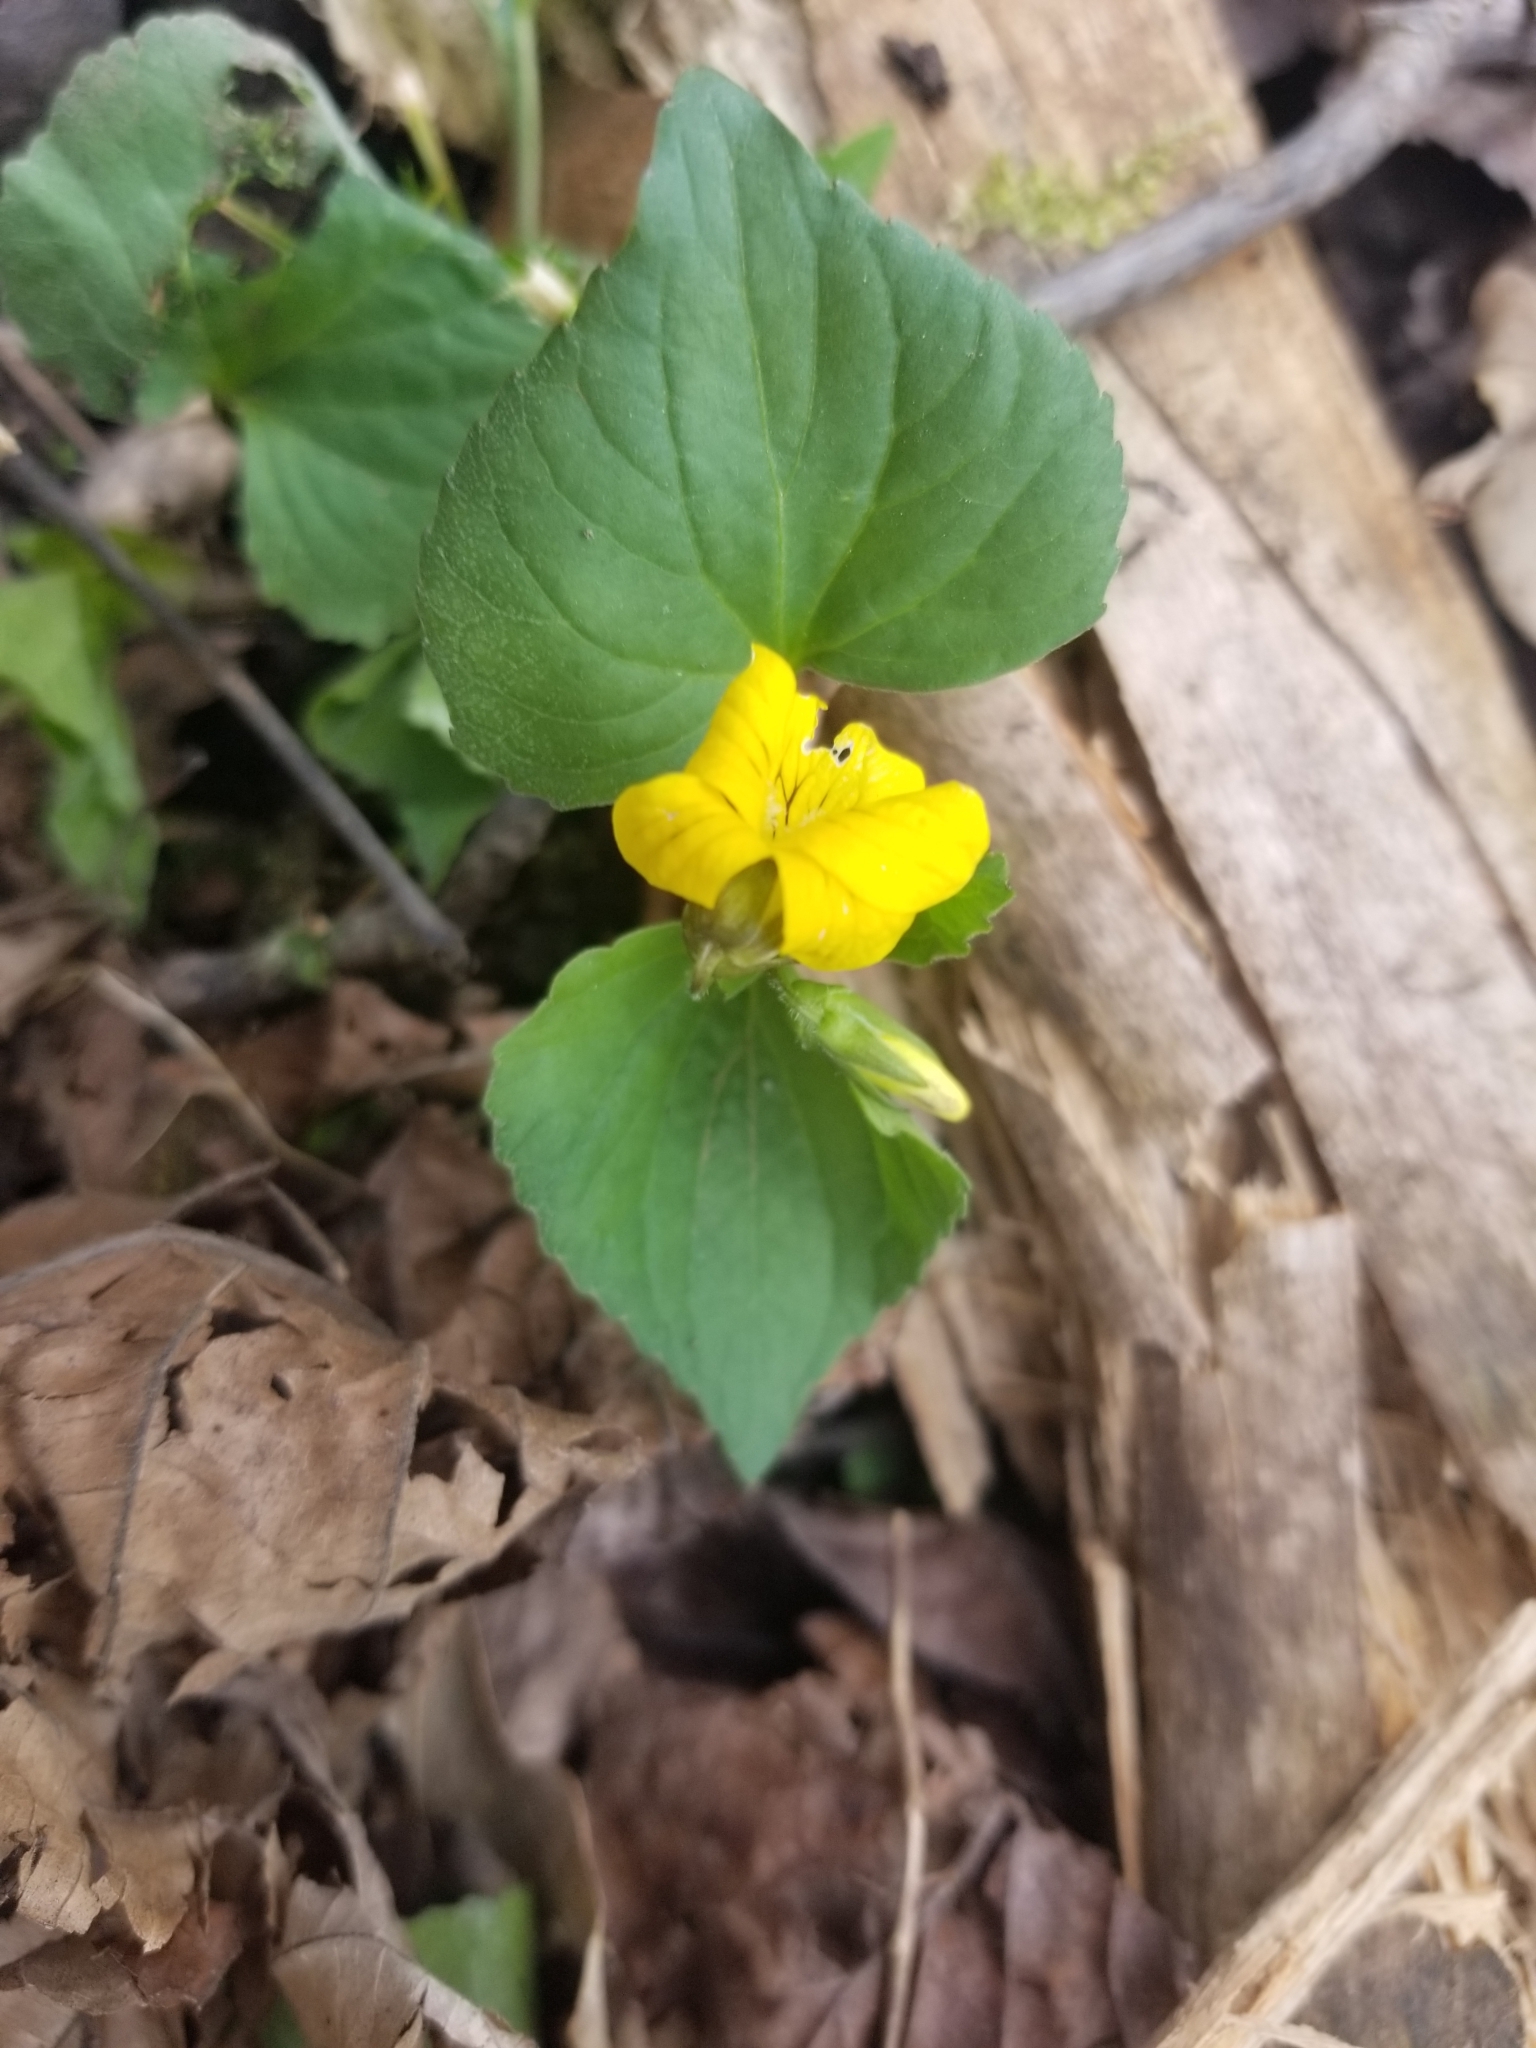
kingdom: Plantae
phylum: Tracheophyta
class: Magnoliopsida
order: Malpighiales
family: Violaceae
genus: Viola
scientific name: Viola eriocarpa
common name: Smooth yellow violet
